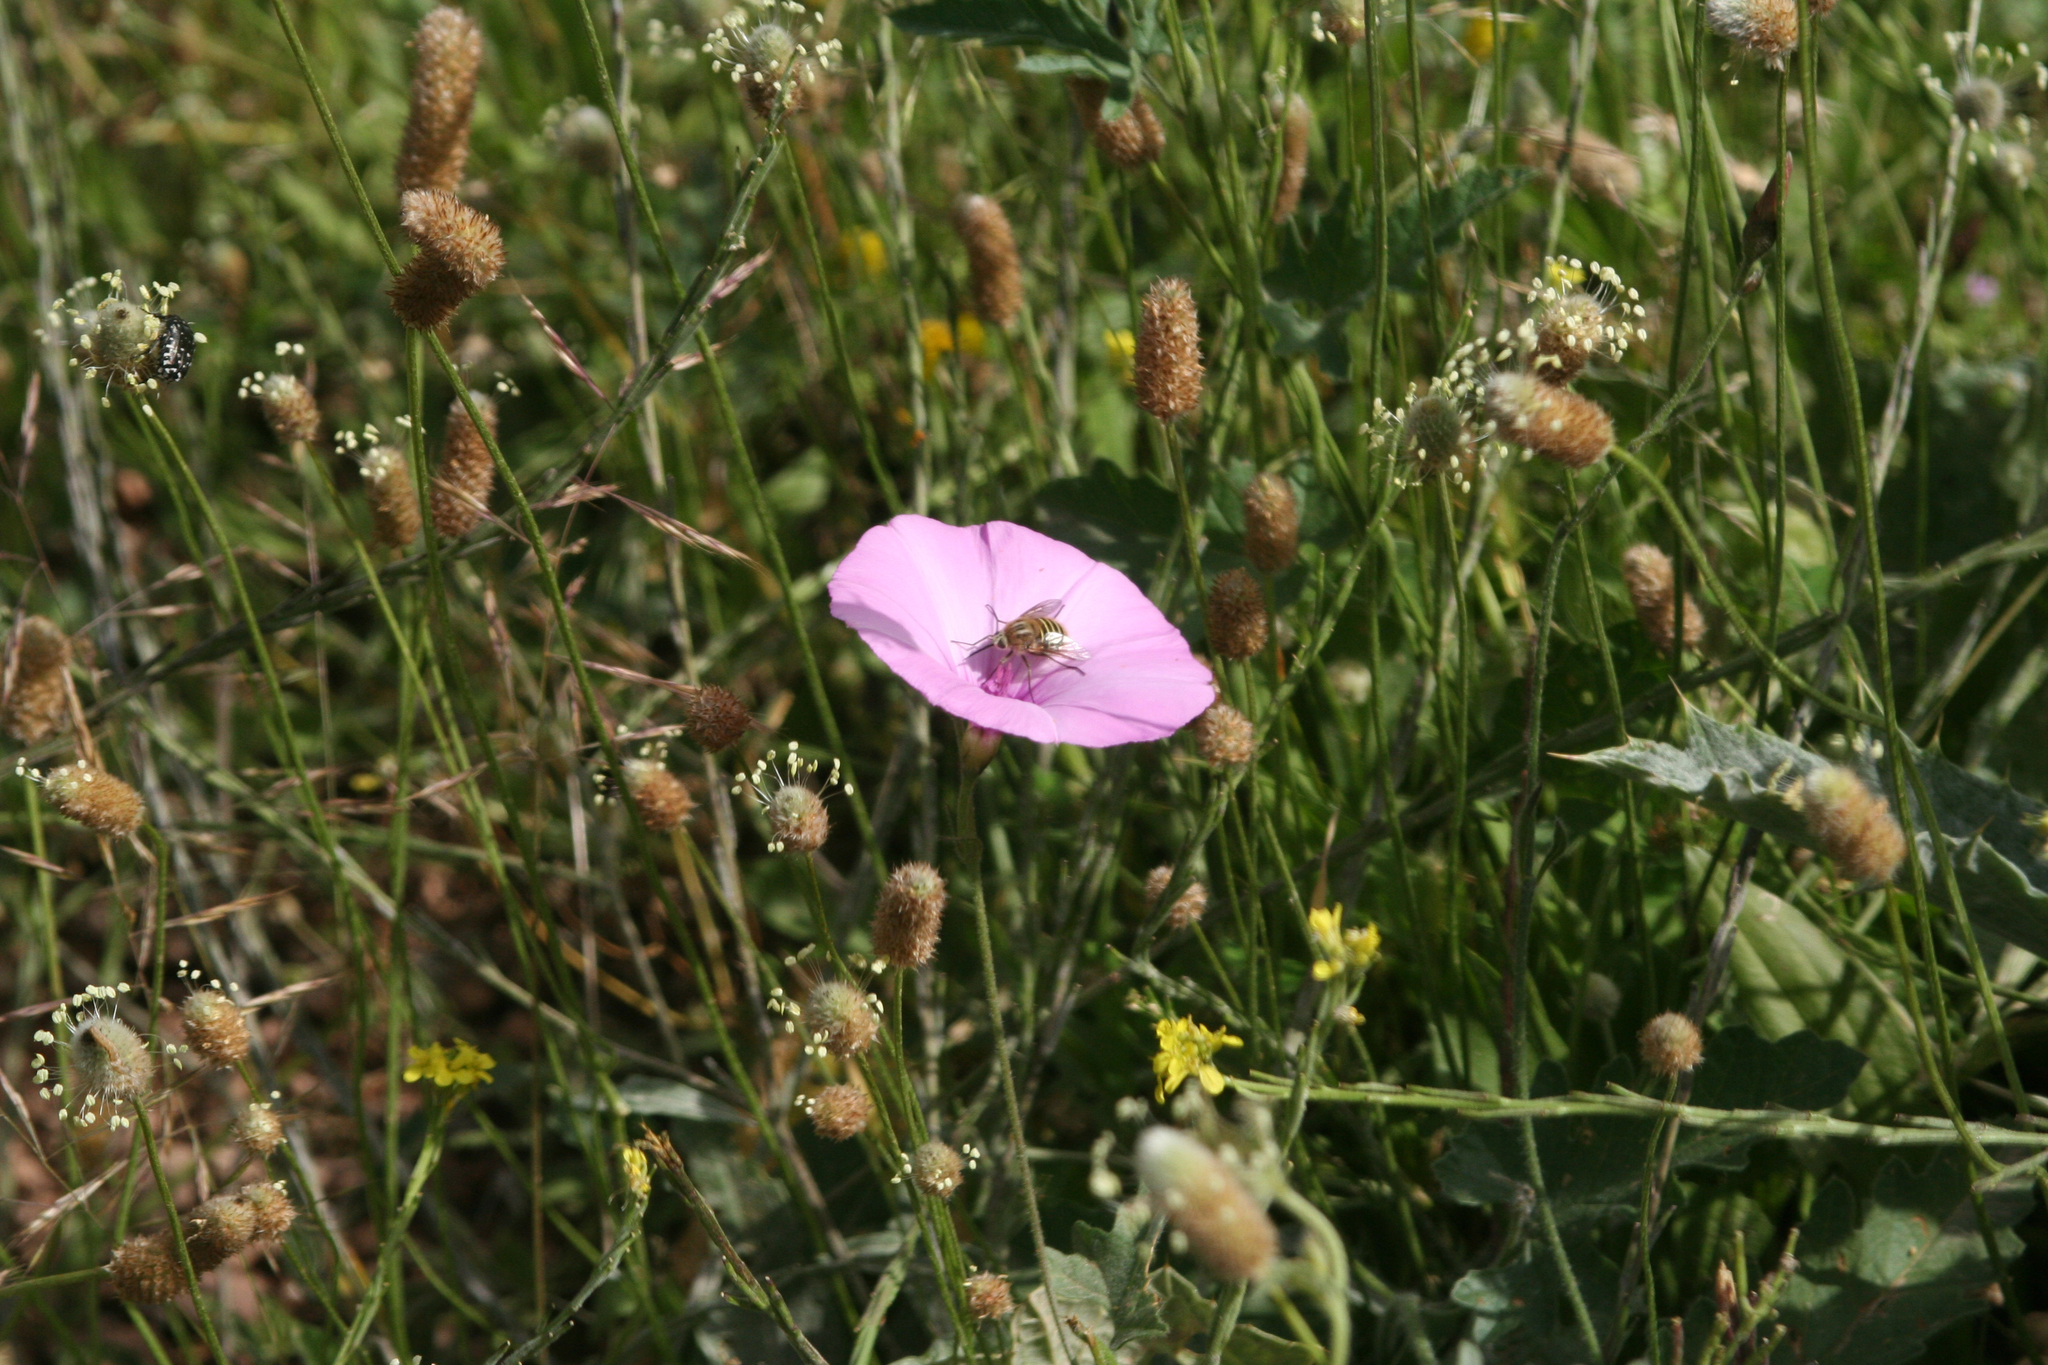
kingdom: Plantae
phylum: Tracheophyta
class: Magnoliopsida
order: Solanales
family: Convolvulaceae
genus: Convolvulus
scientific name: Convolvulus althaeoides
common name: Mallow bindweed
